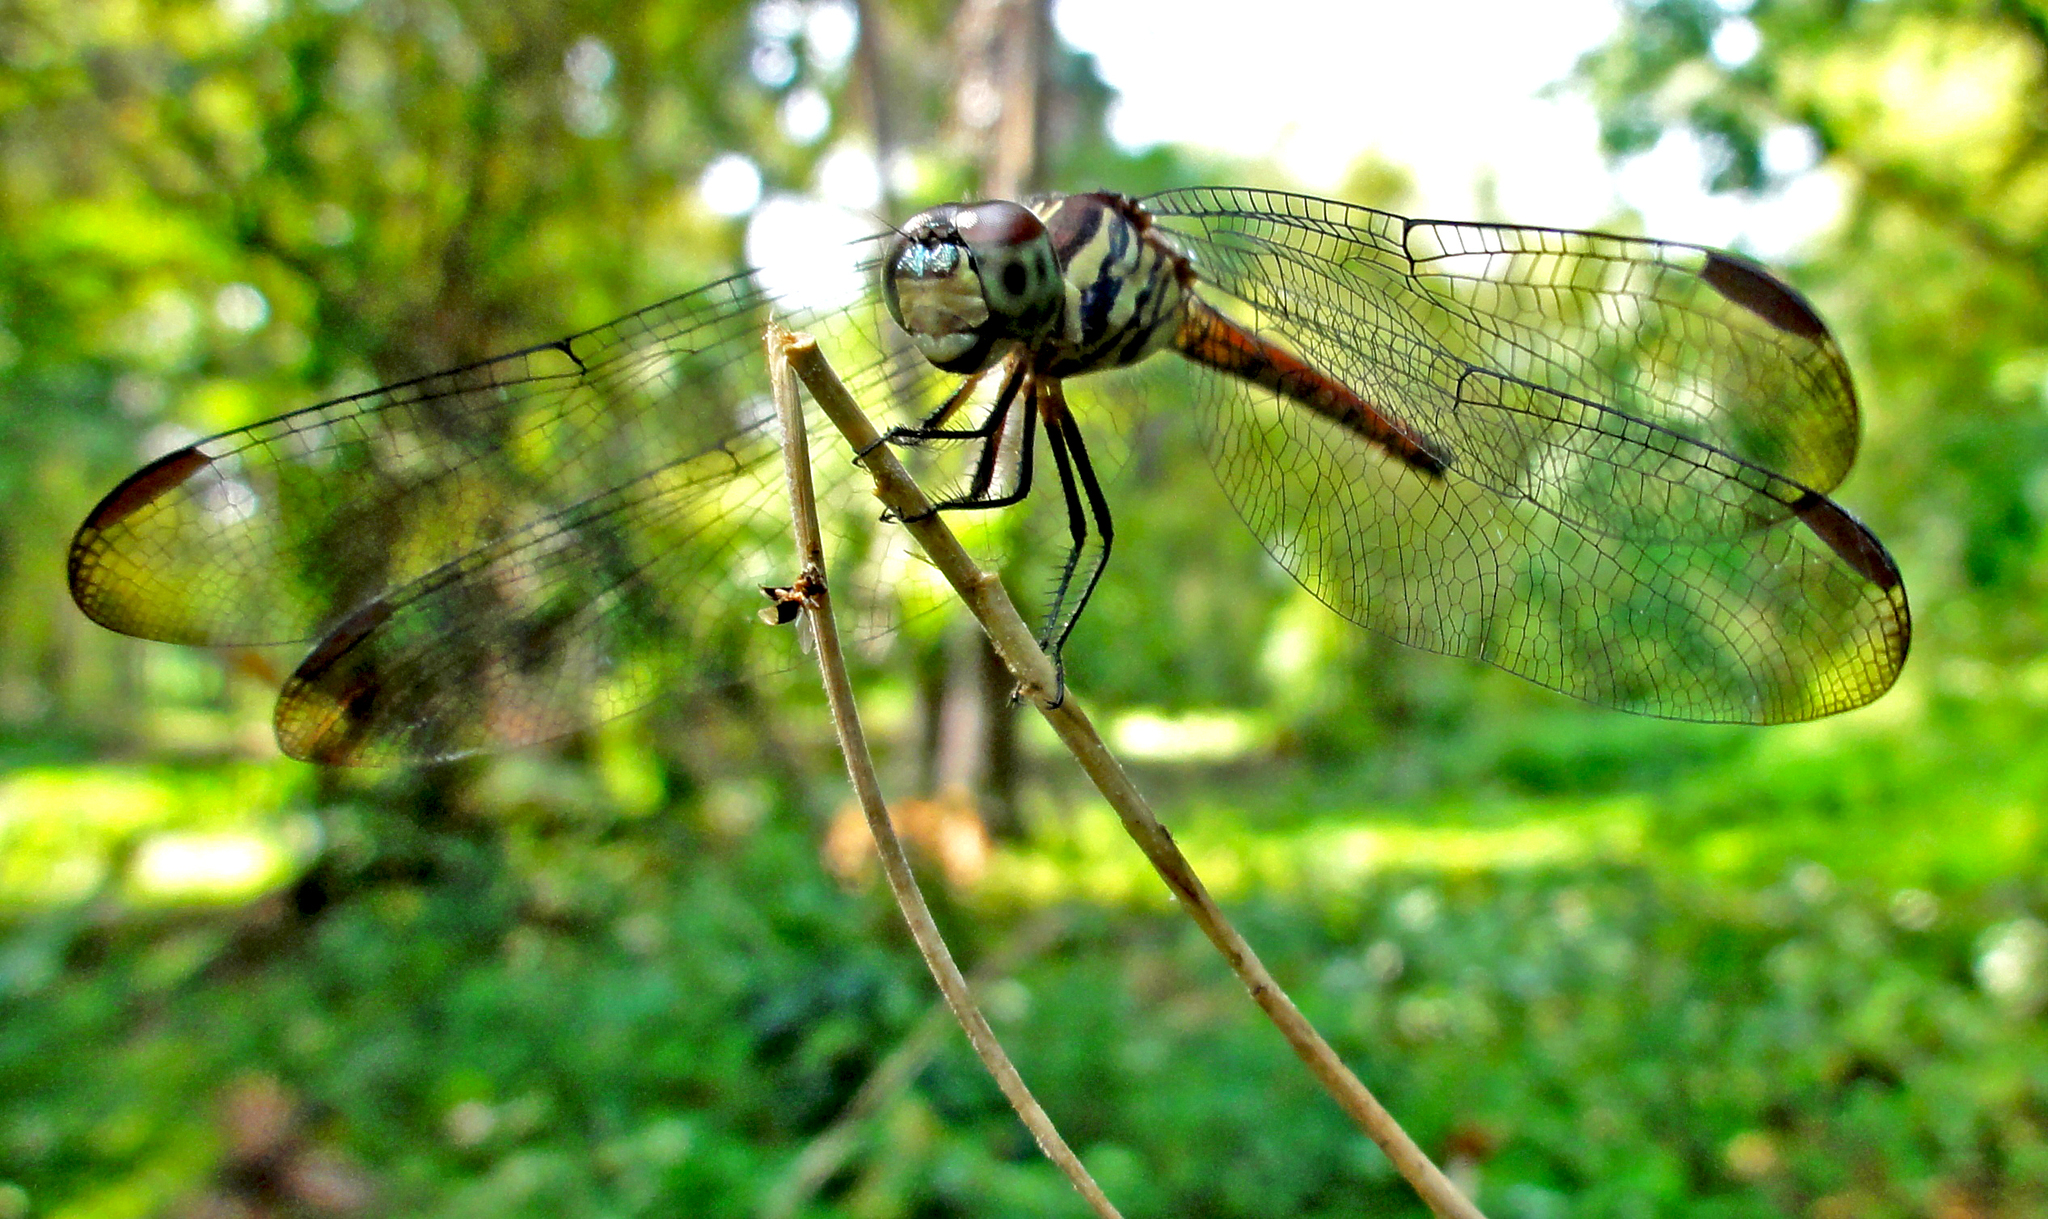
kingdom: Animalia
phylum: Arthropoda
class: Insecta
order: Odonata
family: Libellulidae
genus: Lathrecista
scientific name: Lathrecista asiatica
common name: Scarlet grenadier
